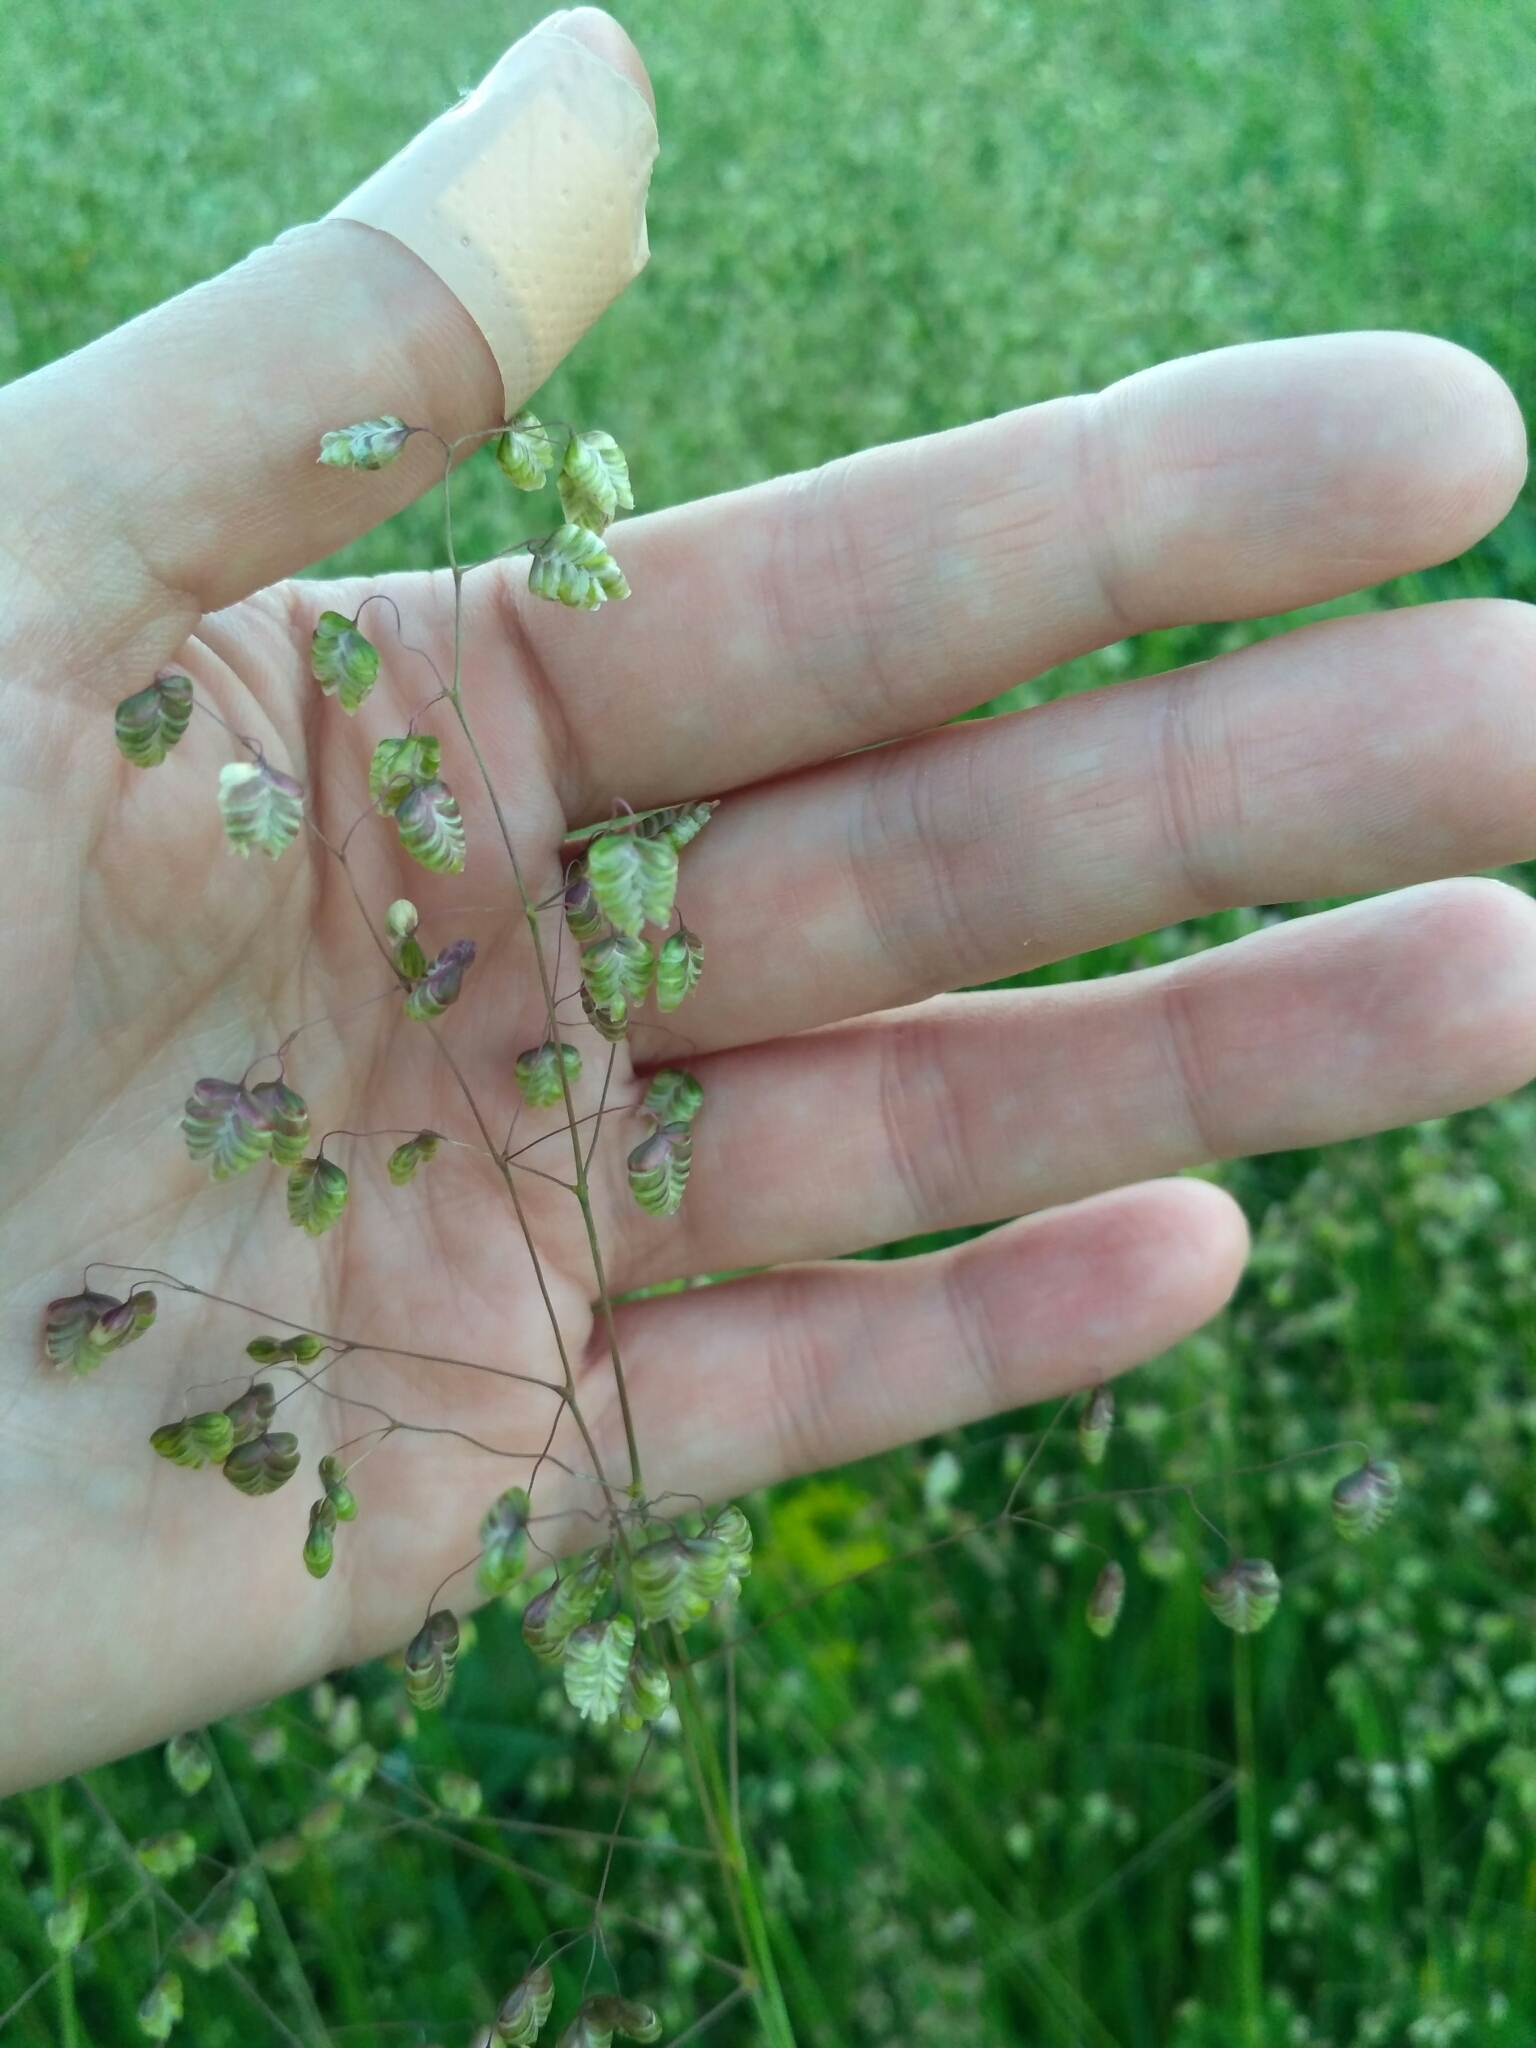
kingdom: Plantae
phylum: Tracheophyta
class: Liliopsida
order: Poales
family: Poaceae
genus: Briza
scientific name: Briza media
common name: Quaking grass
